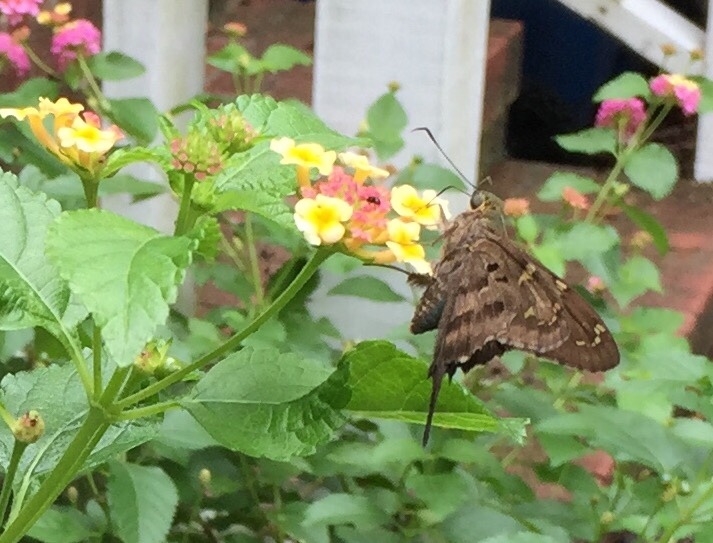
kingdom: Animalia
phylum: Arthropoda
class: Insecta
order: Lepidoptera
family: Hesperiidae
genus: Urbanus
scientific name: Urbanus proteus
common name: Long-tailed skipper
